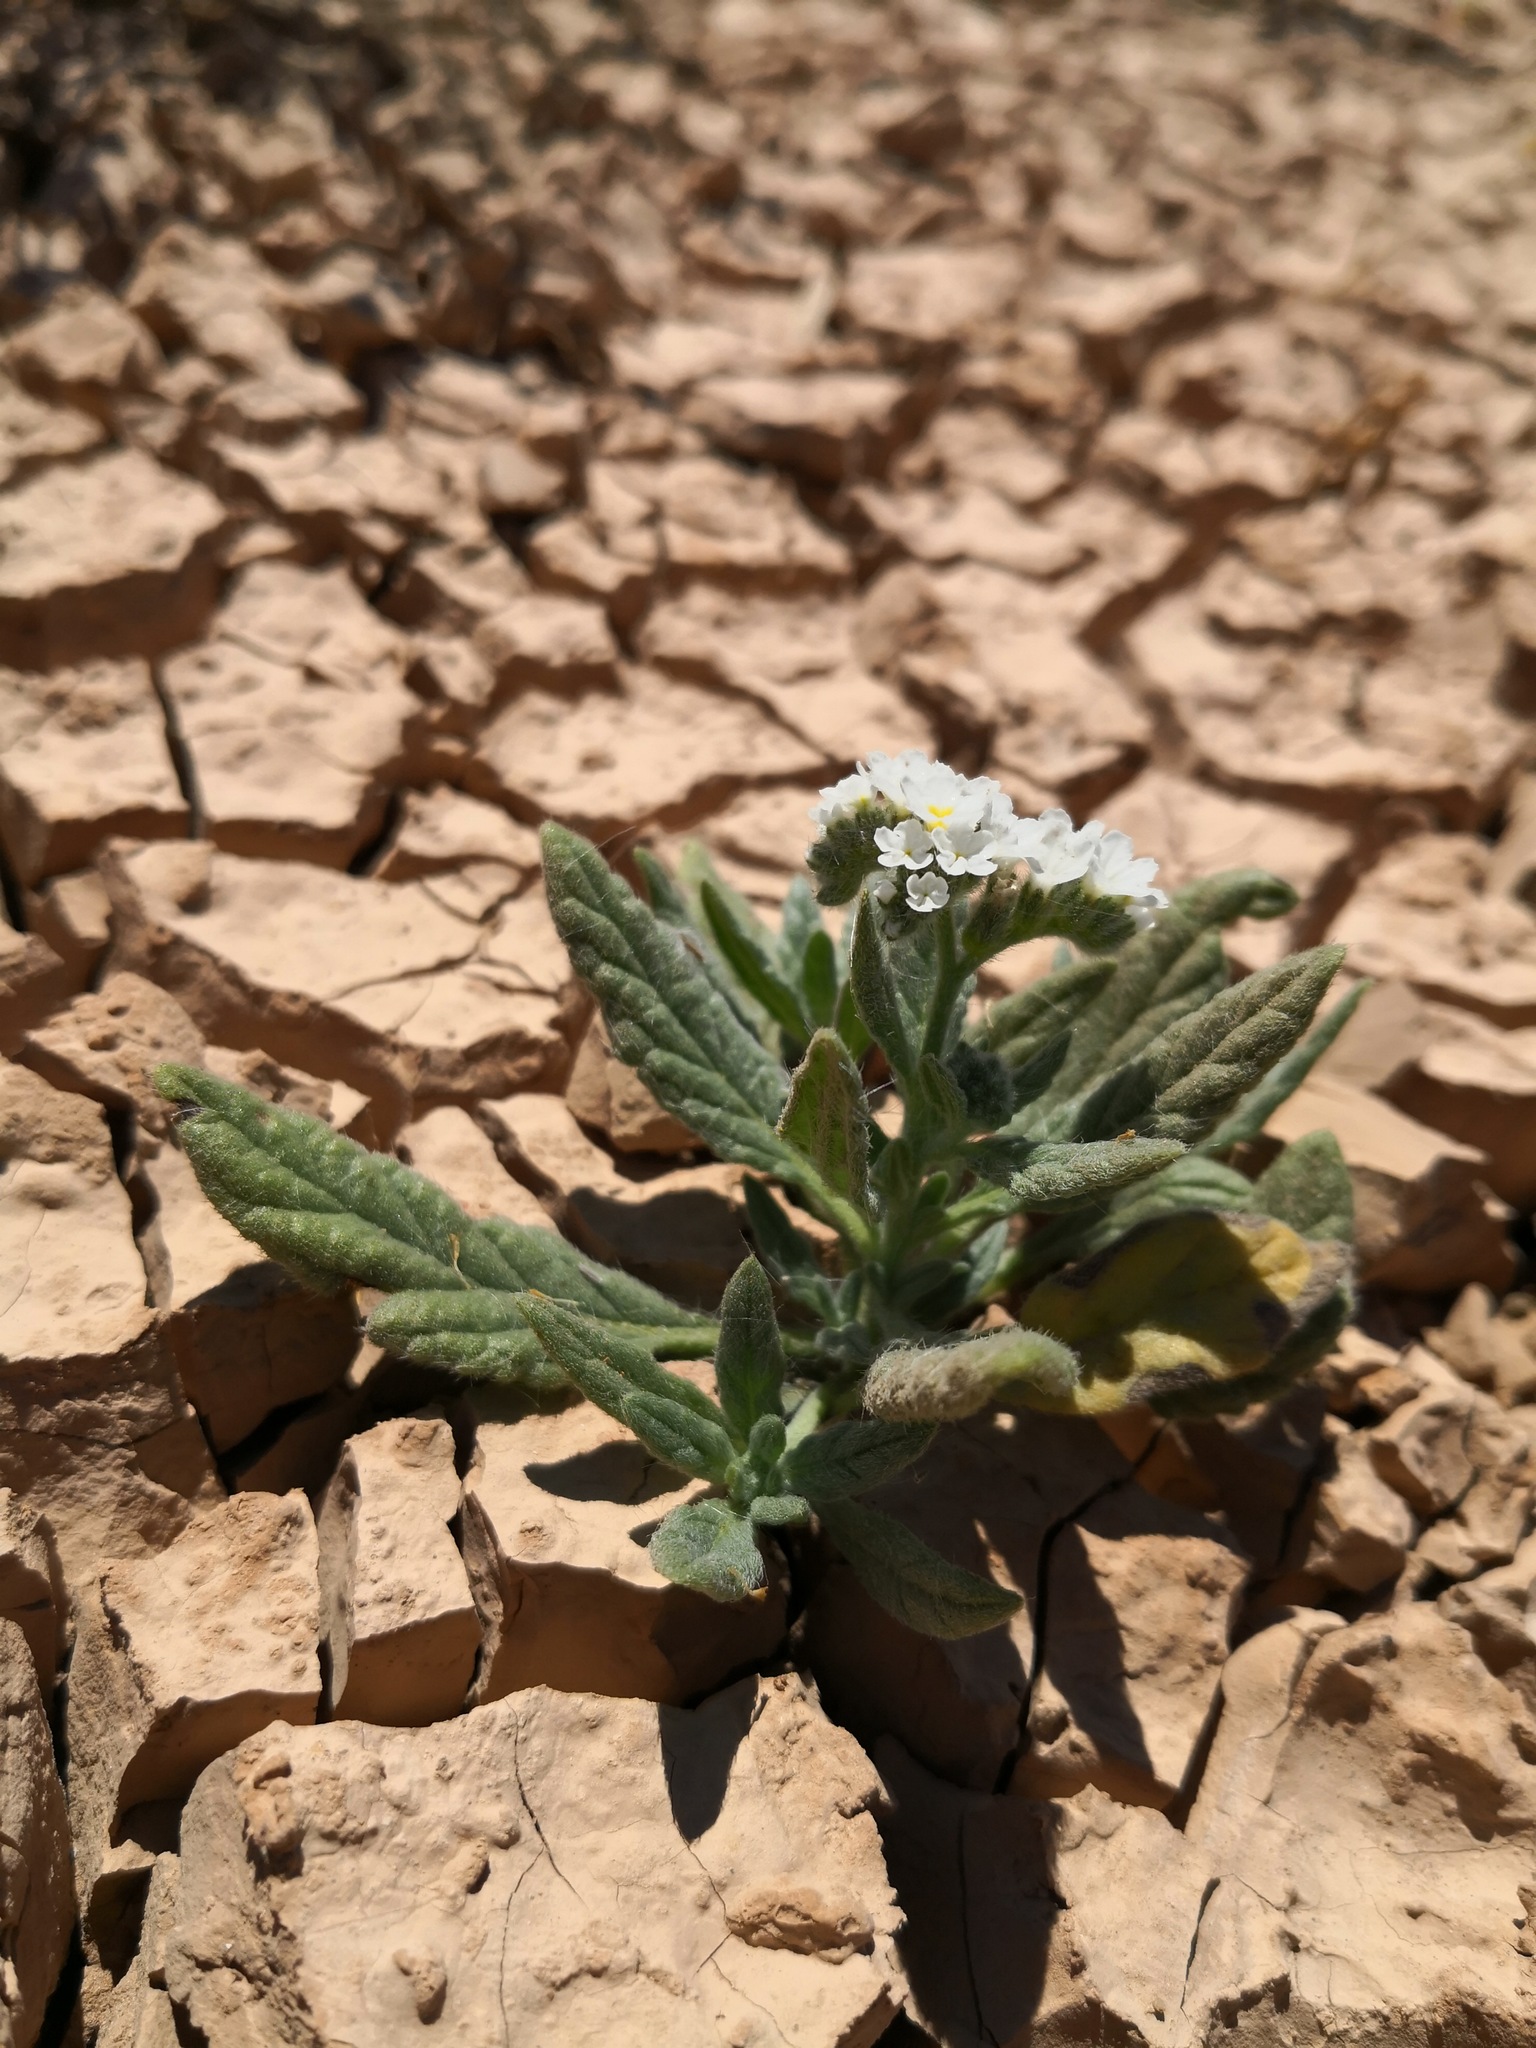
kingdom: Plantae
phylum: Tracheophyta
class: Magnoliopsida
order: Boraginales
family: Heliotropiaceae
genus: Heliotropium
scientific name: Heliotropium ramosissimum
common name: Wavy heliotrope
